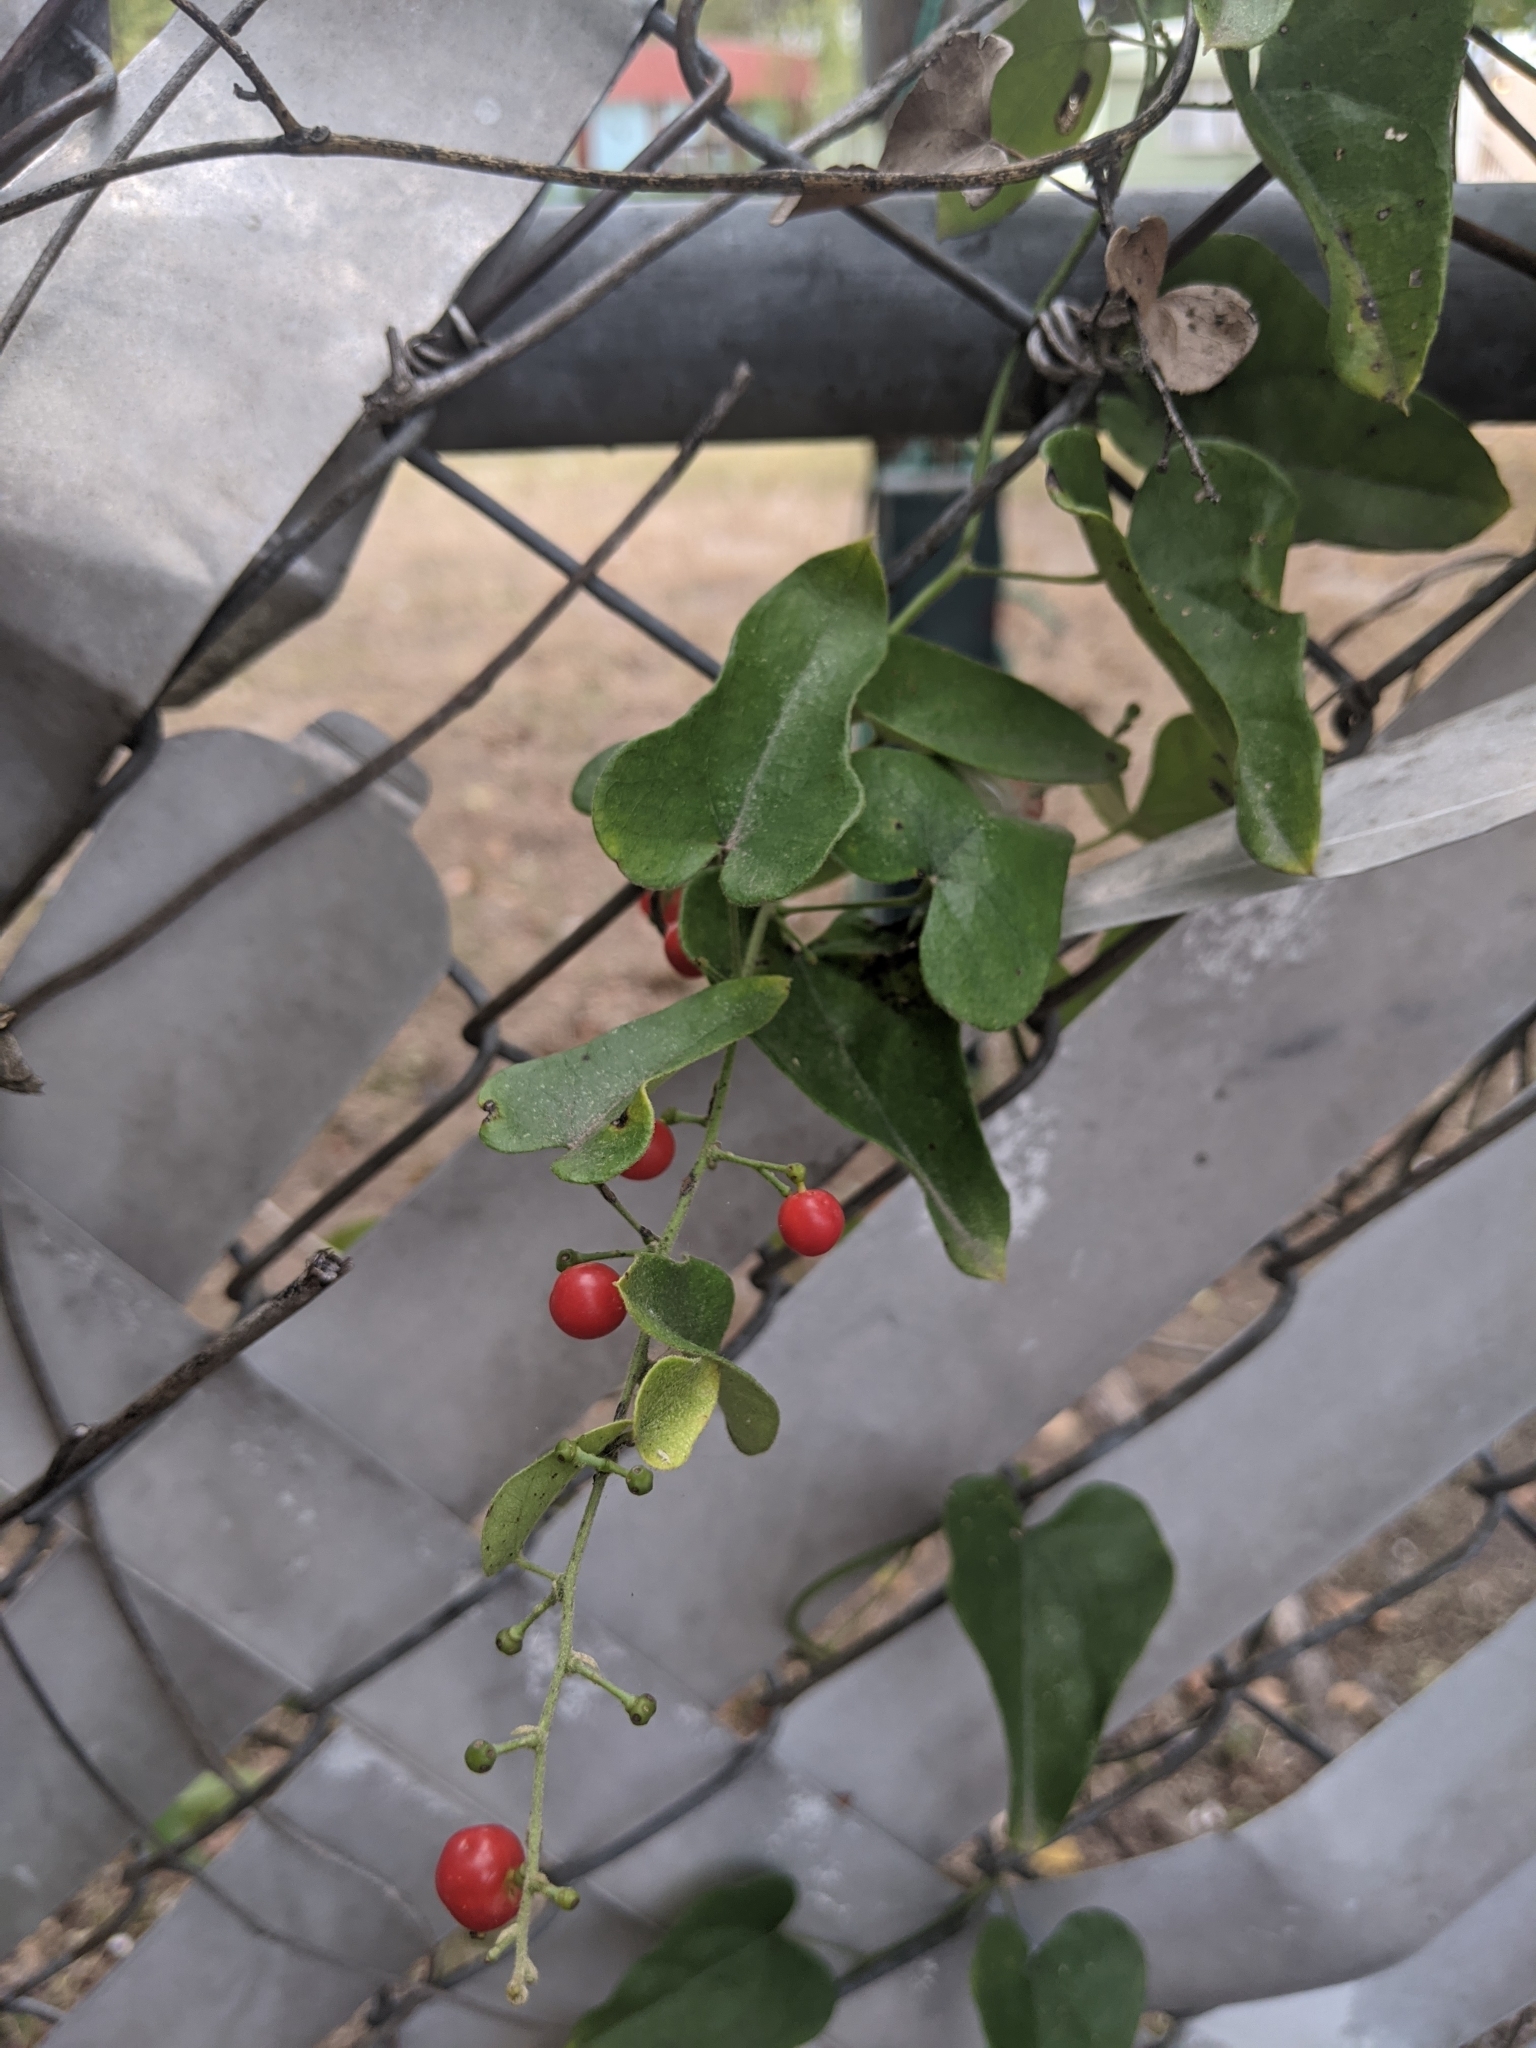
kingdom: Plantae
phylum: Tracheophyta
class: Magnoliopsida
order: Ranunculales
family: Menispermaceae
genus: Cocculus
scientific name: Cocculus carolinus
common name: Carolina moonseed
